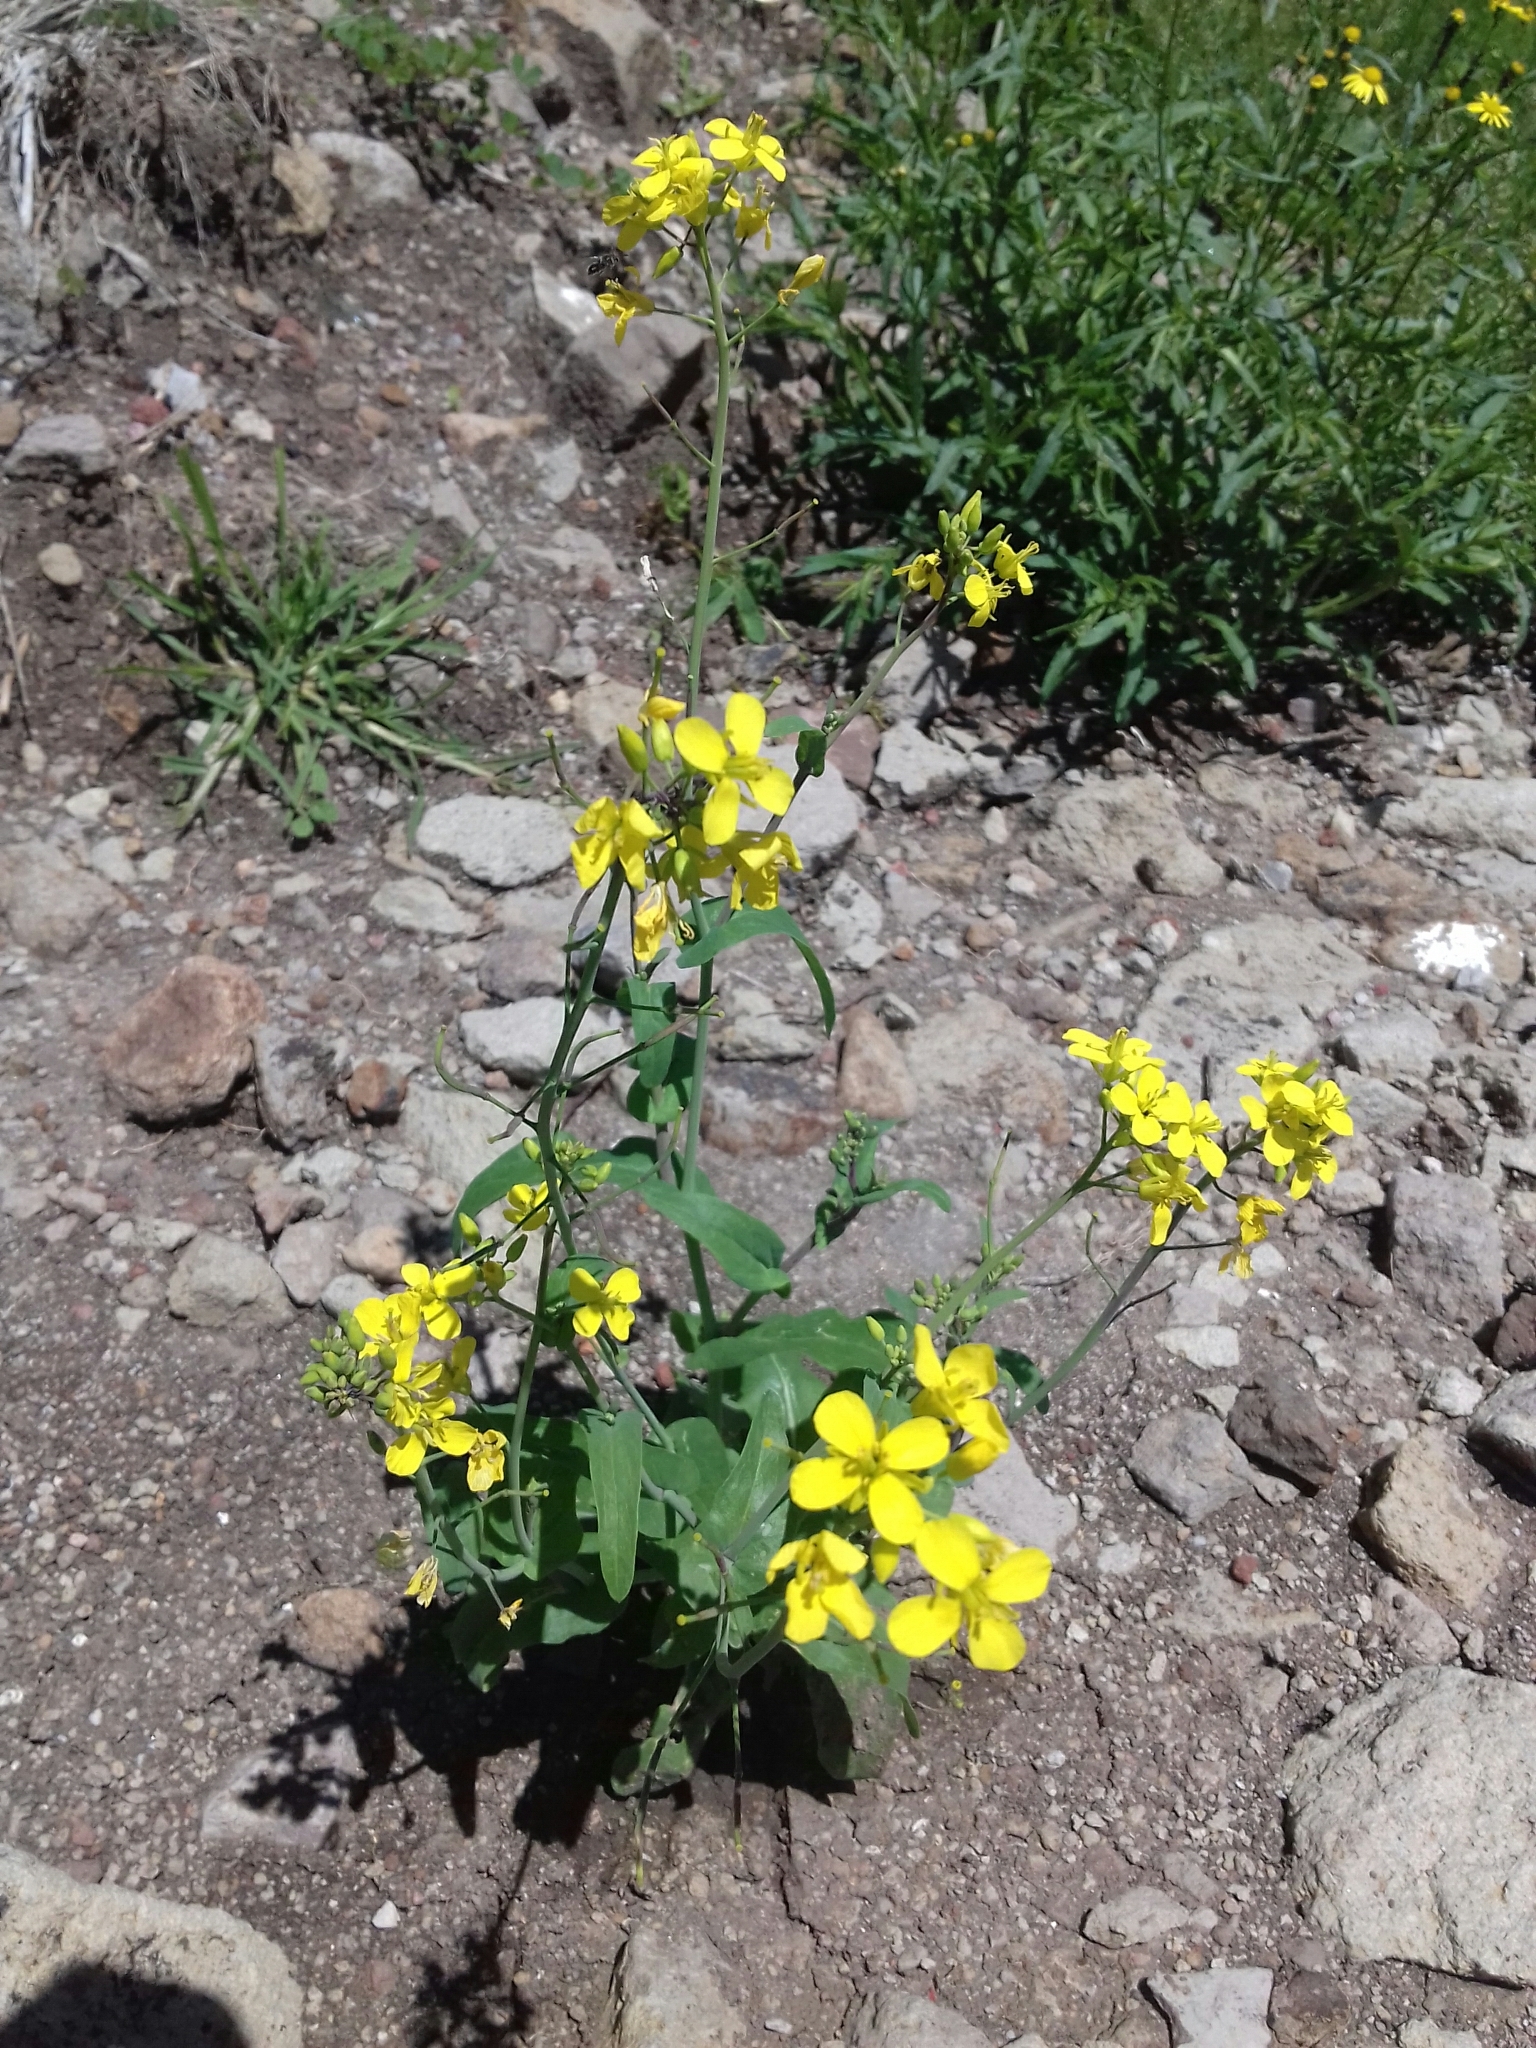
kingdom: Plantae
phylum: Tracheophyta
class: Magnoliopsida
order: Brassicales
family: Brassicaceae
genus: Brassica
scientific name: Brassica rapa
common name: Field mustard
